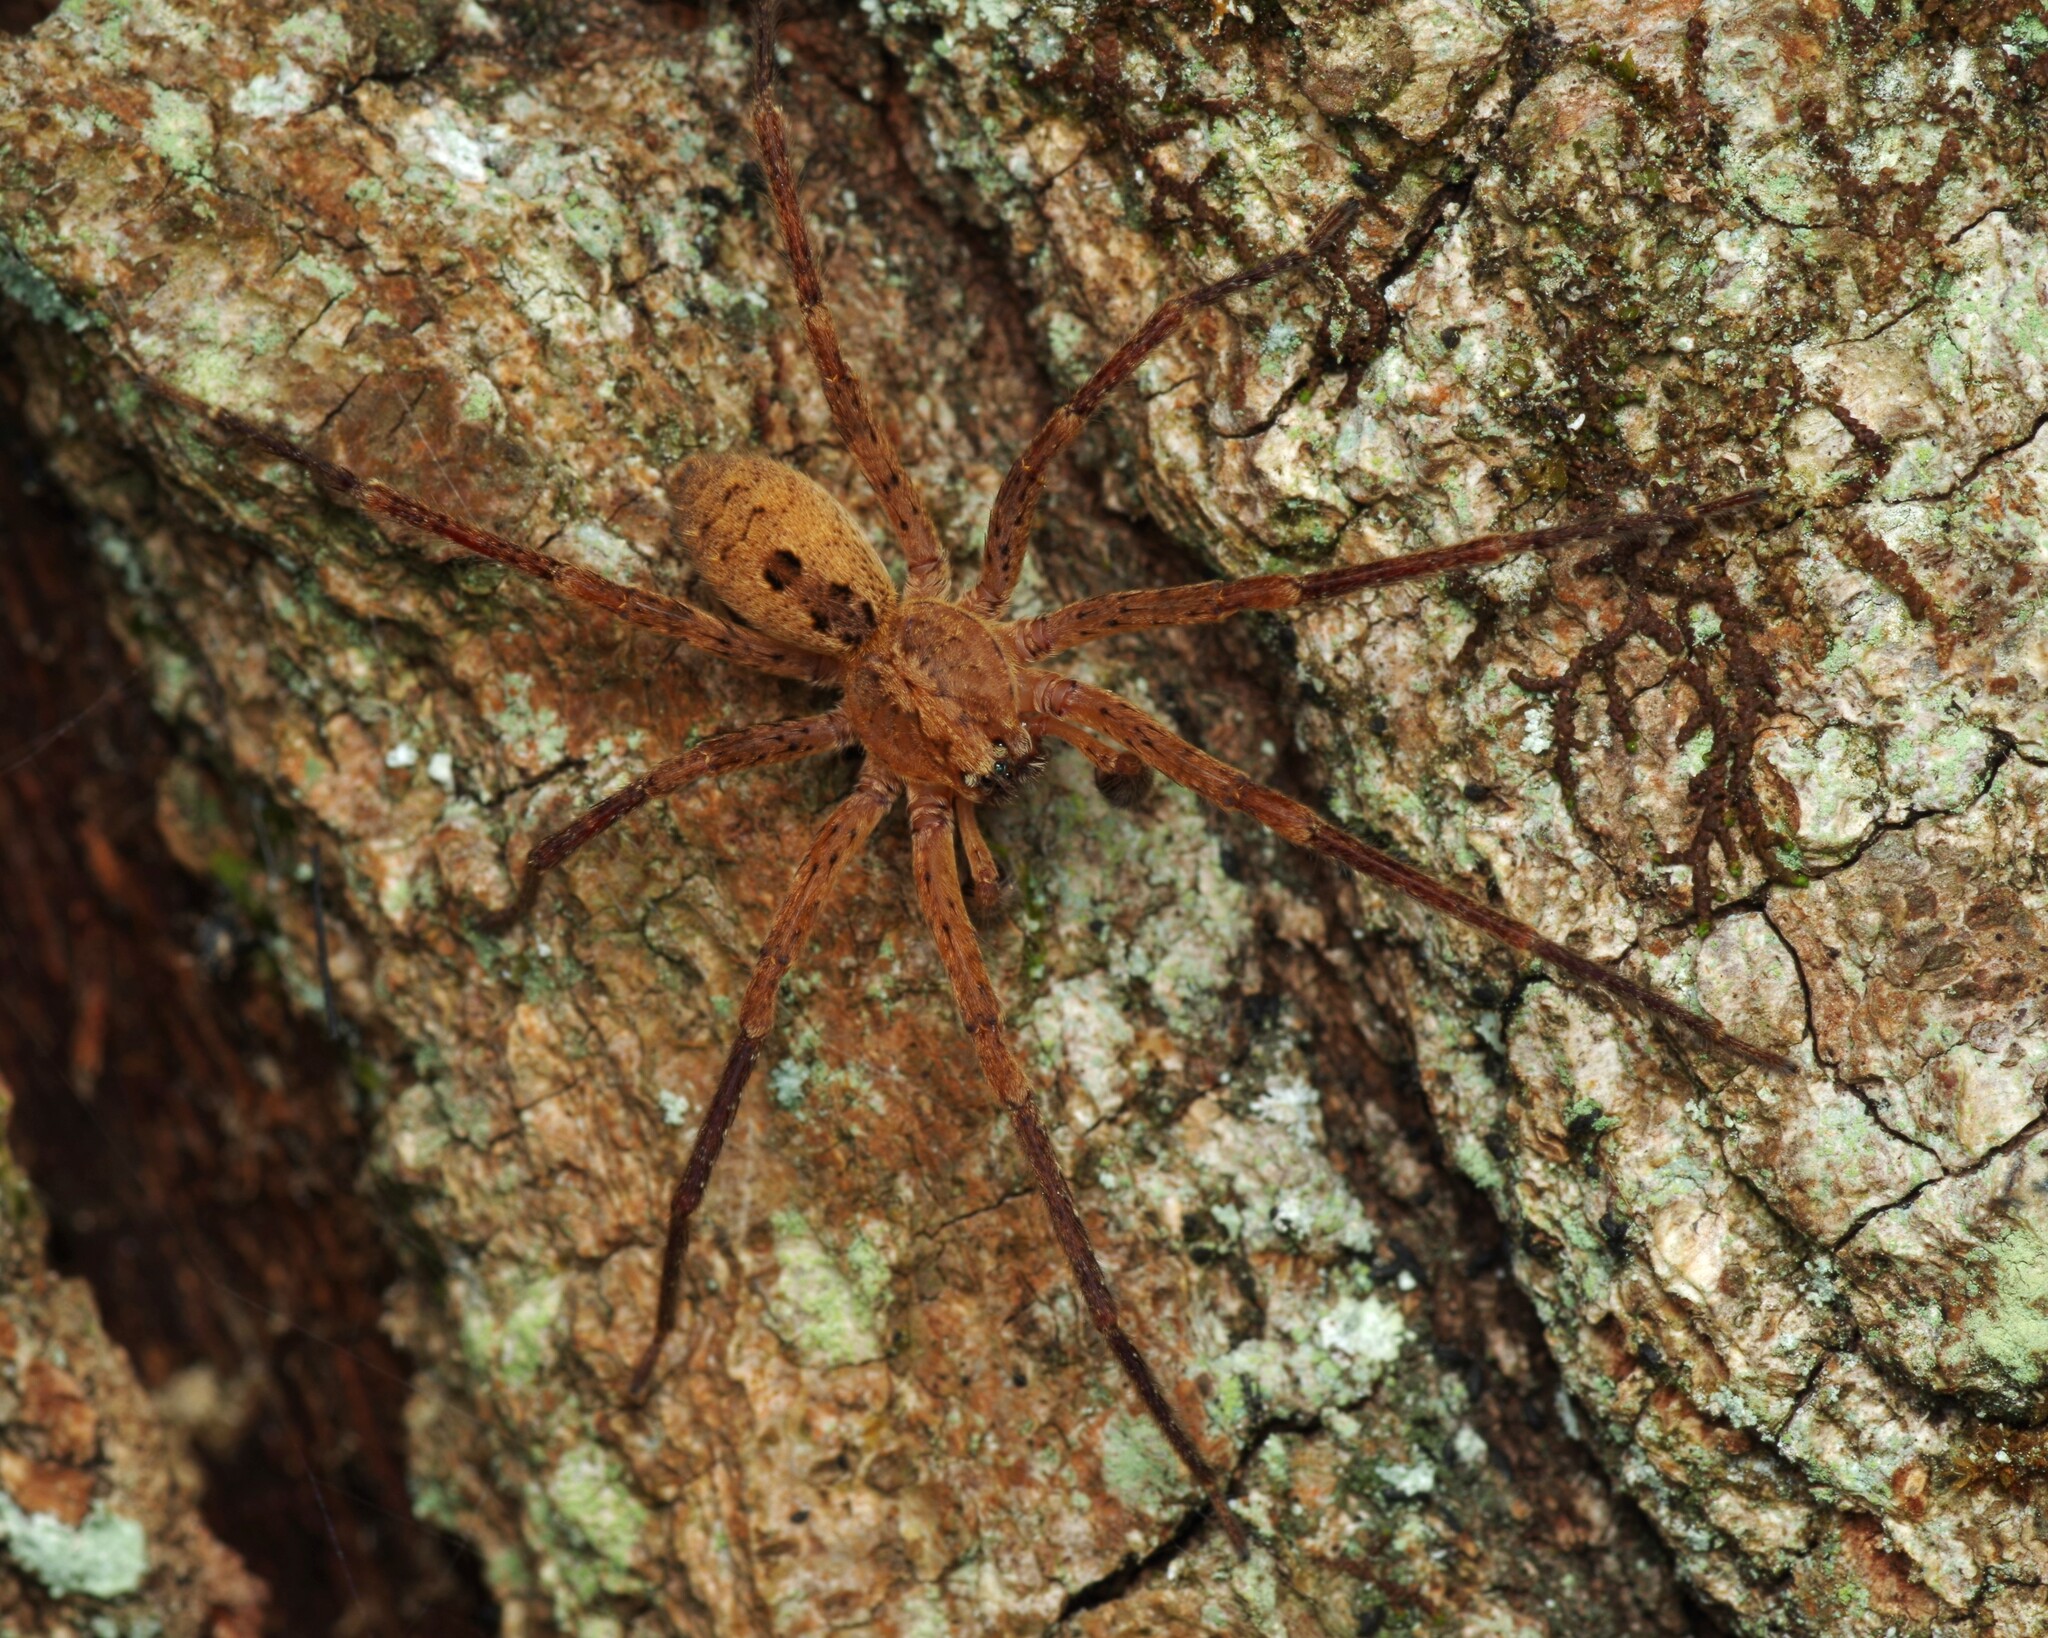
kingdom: Animalia
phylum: Arthropoda
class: Arachnida
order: Araneae
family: Zoropsidae
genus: Zoropsis
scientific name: Zoropsis spinimana
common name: Zoropsid spider
